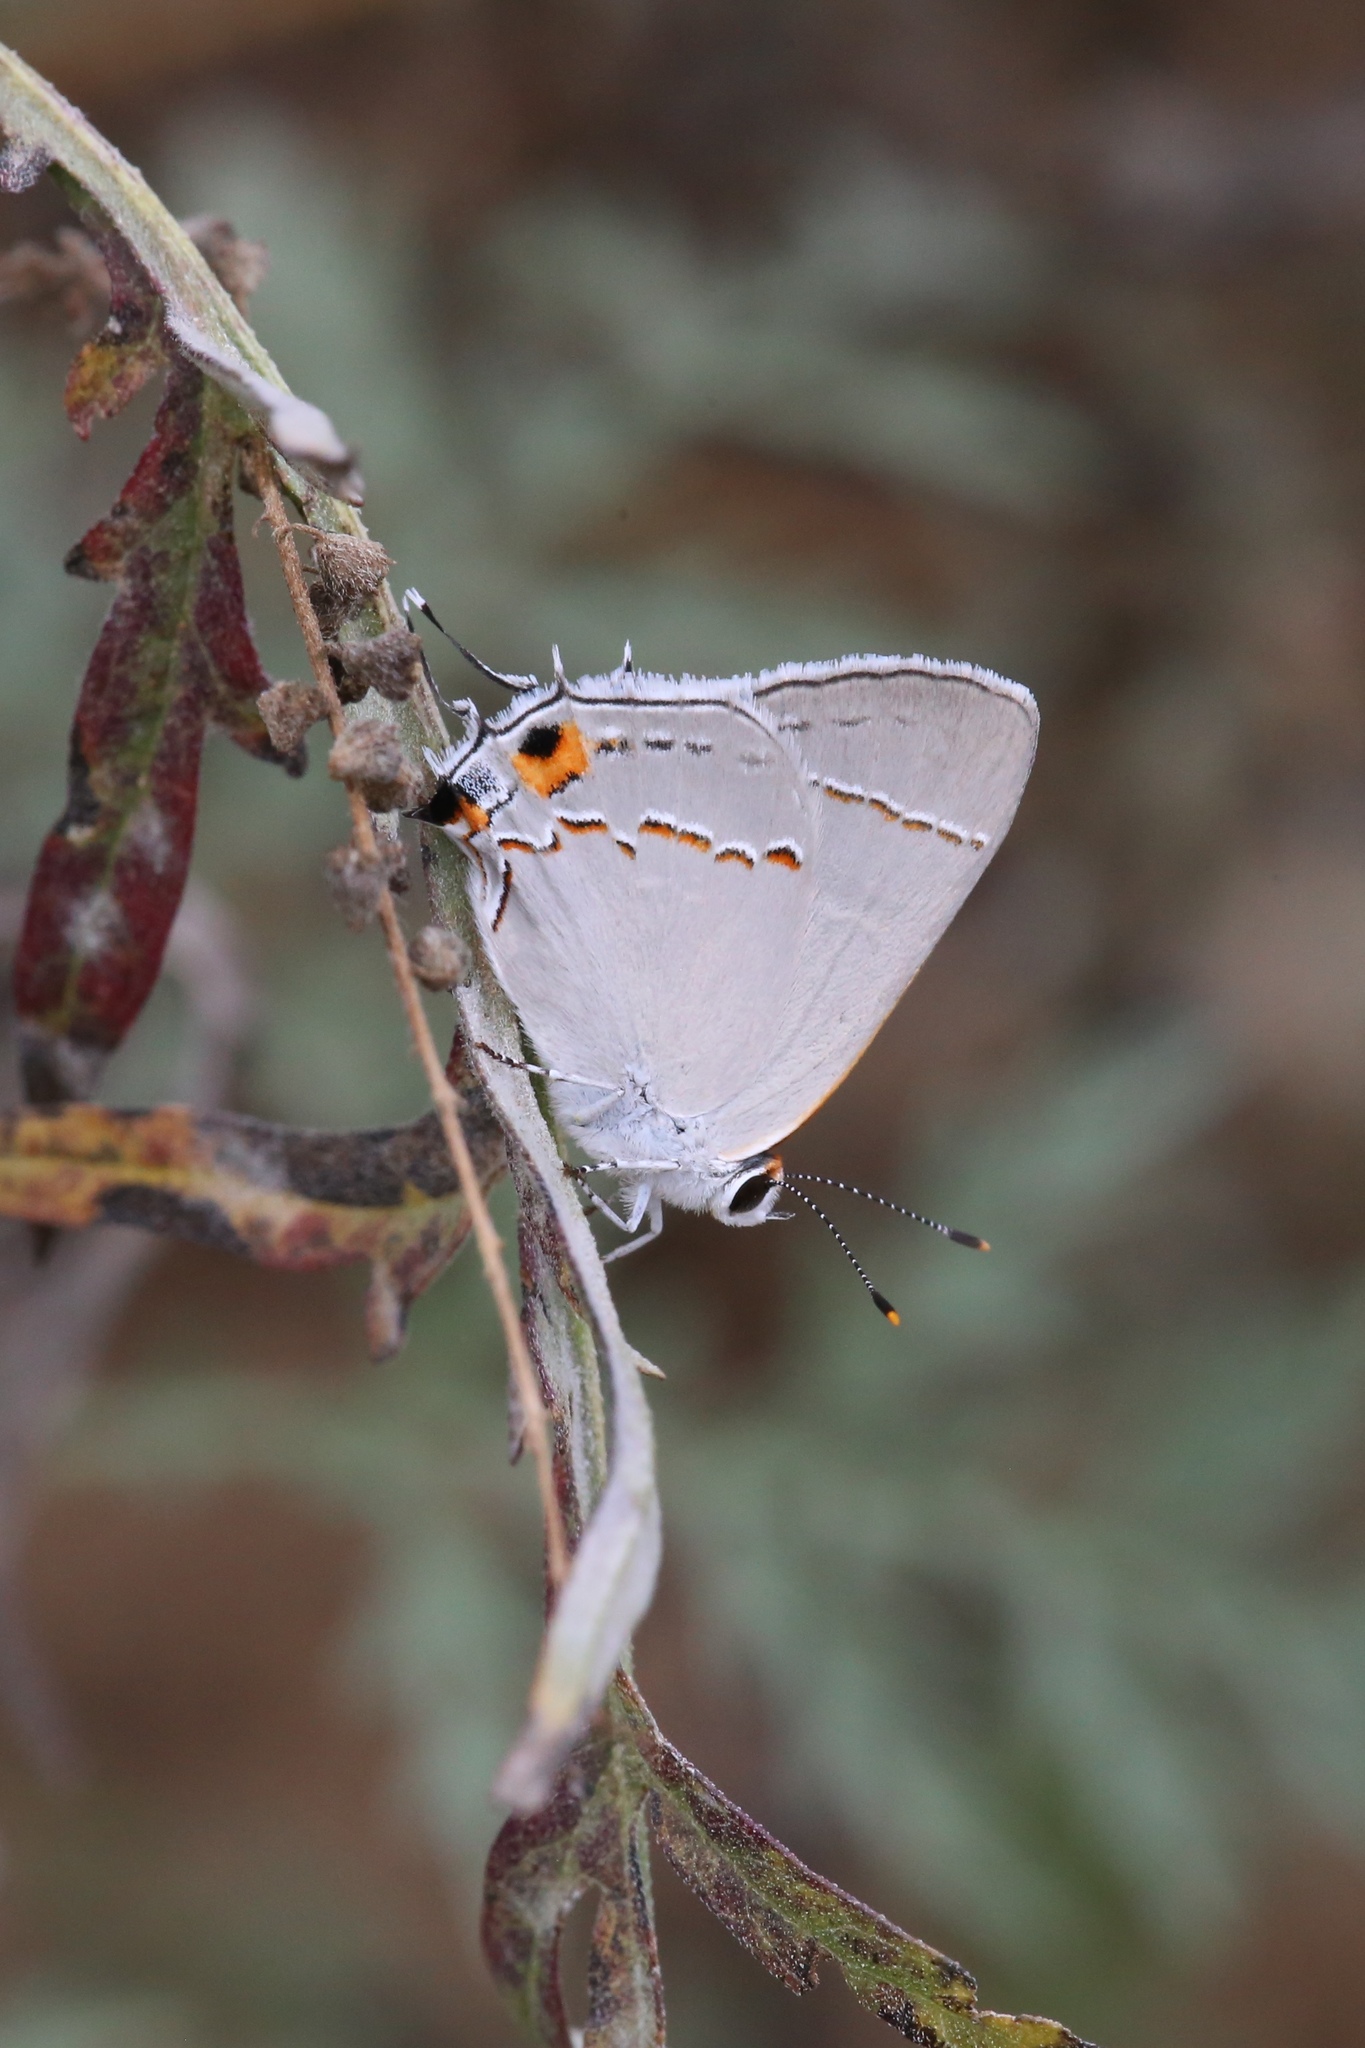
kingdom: Animalia
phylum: Arthropoda
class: Insecta
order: Lepidoptera
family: Lycaenidae
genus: Thecla
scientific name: Thecla pudica
